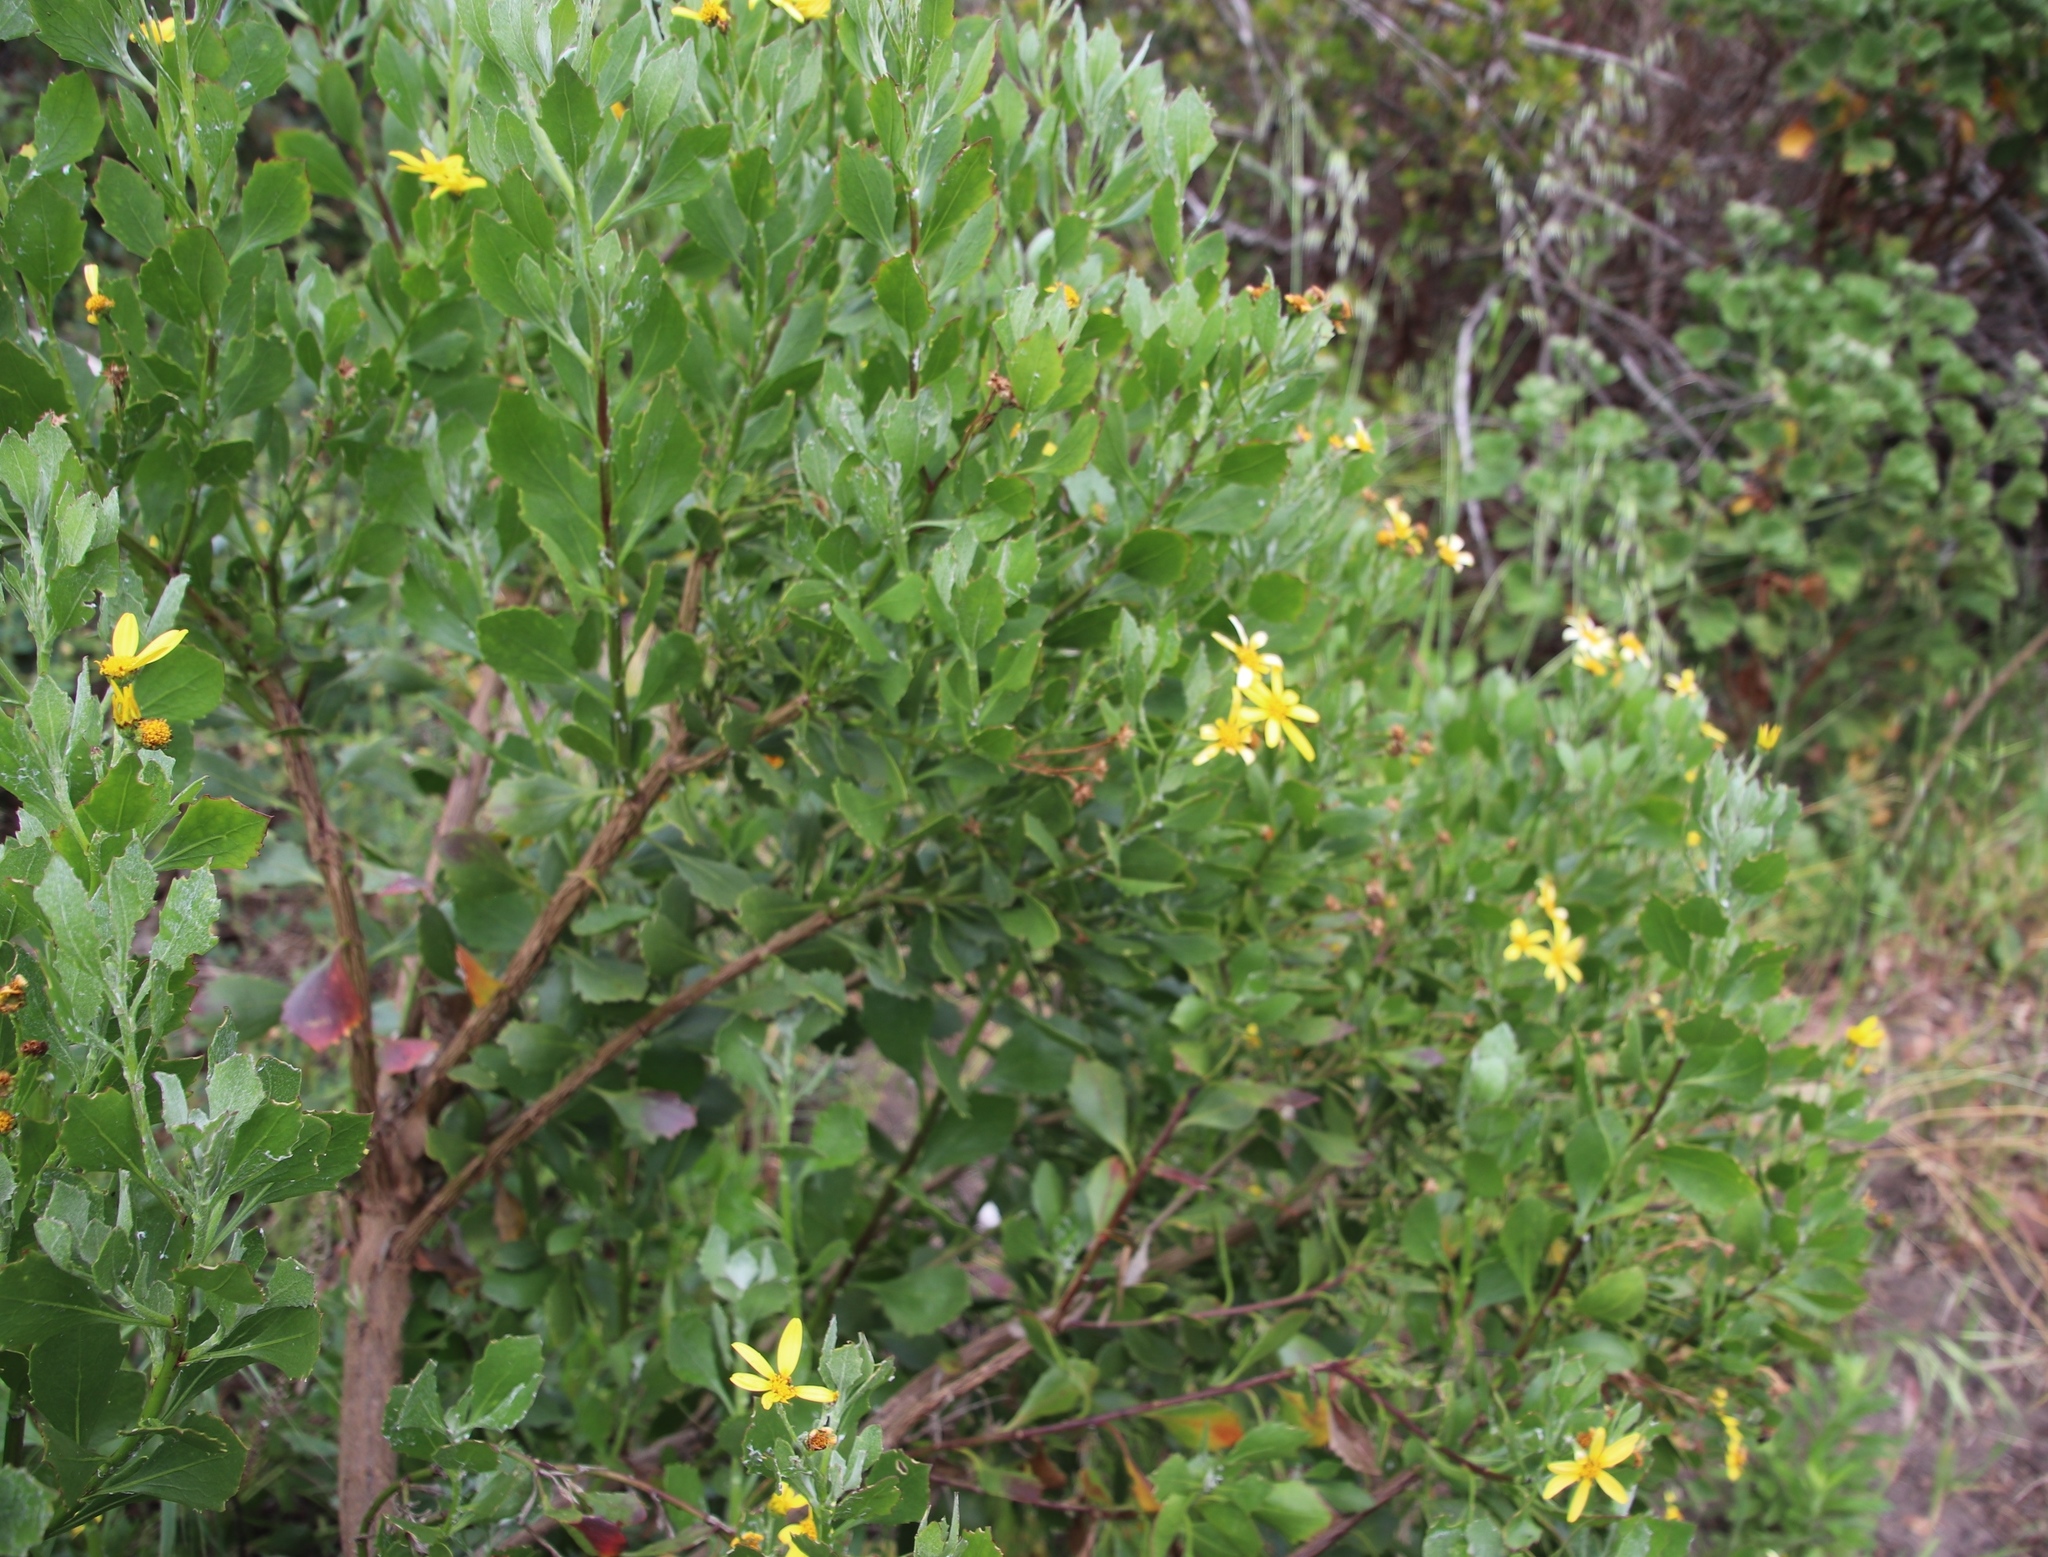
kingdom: Plantae
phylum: Tracheophyta
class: Magnoliopsida
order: Asterales
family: Asteraceae
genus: Osteospermum
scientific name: Osteospermum moniliferum
